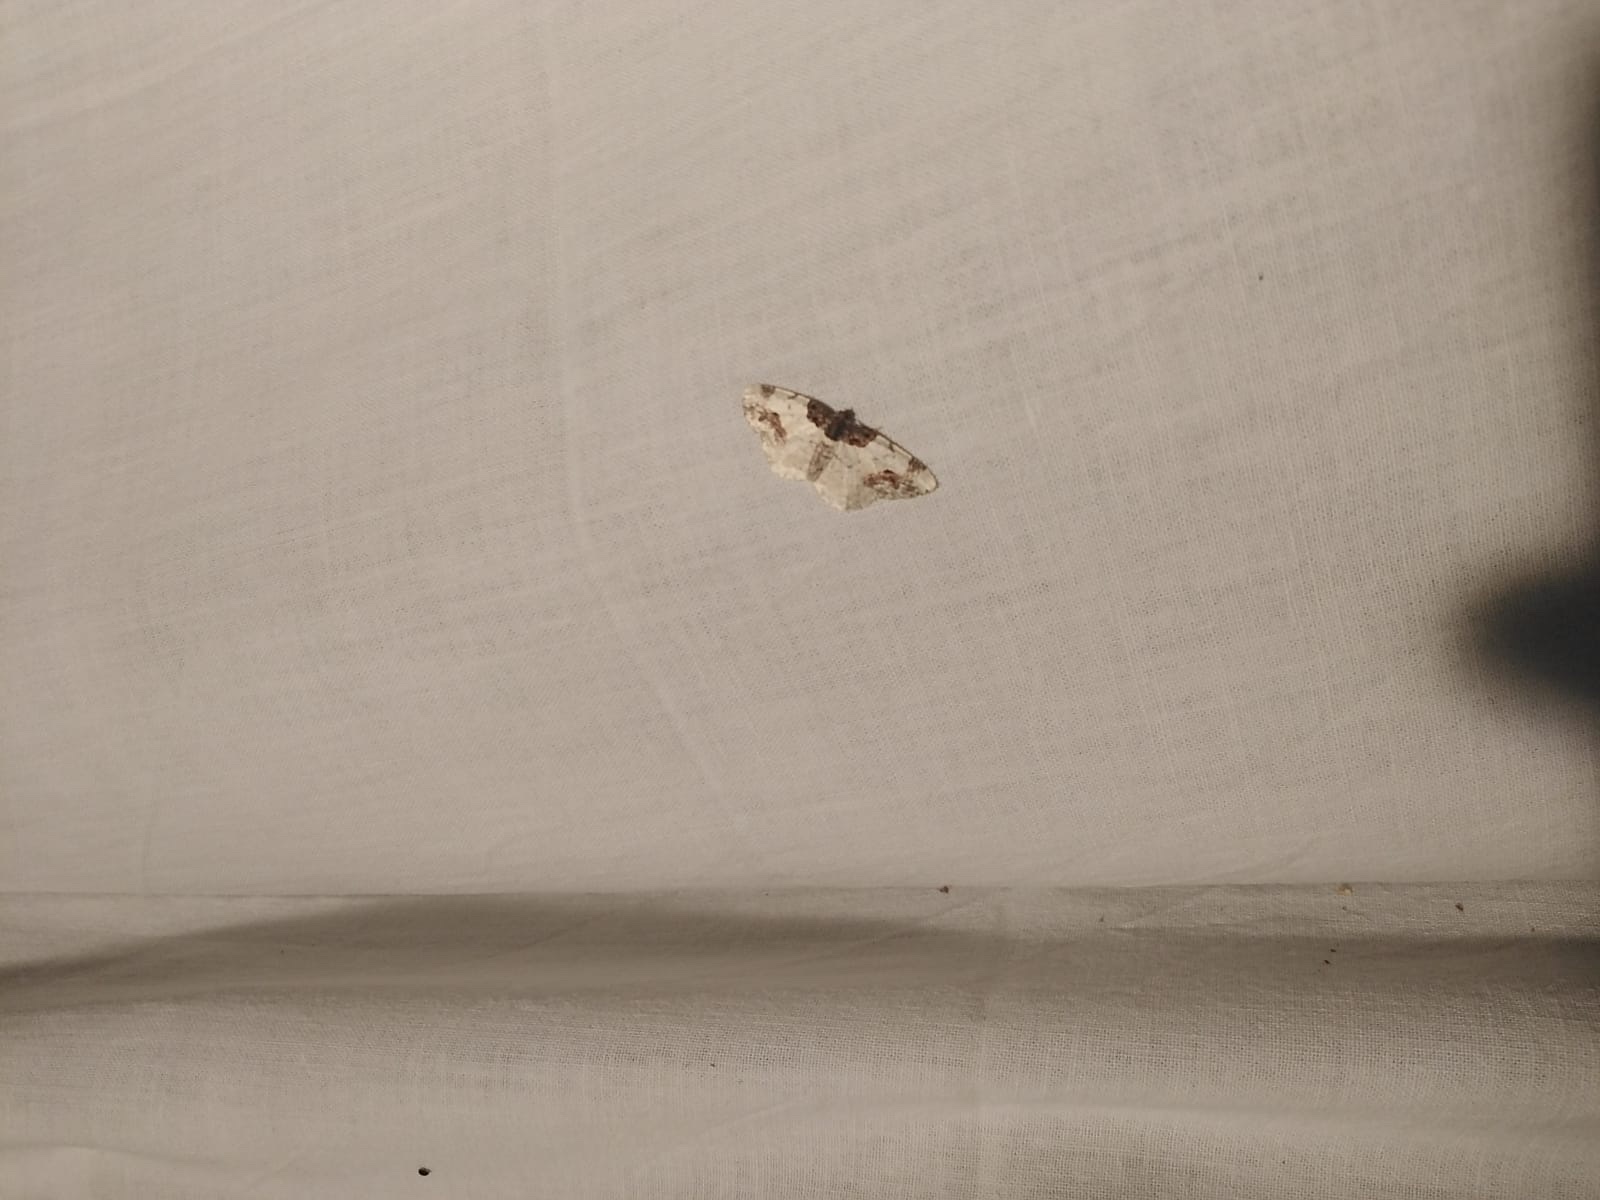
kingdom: Animalia
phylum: Arthropoda
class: Insecta
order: Lepidoptera
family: Geometridae
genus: Ligdia
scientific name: Ligdia adustata
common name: Scorched carpet
